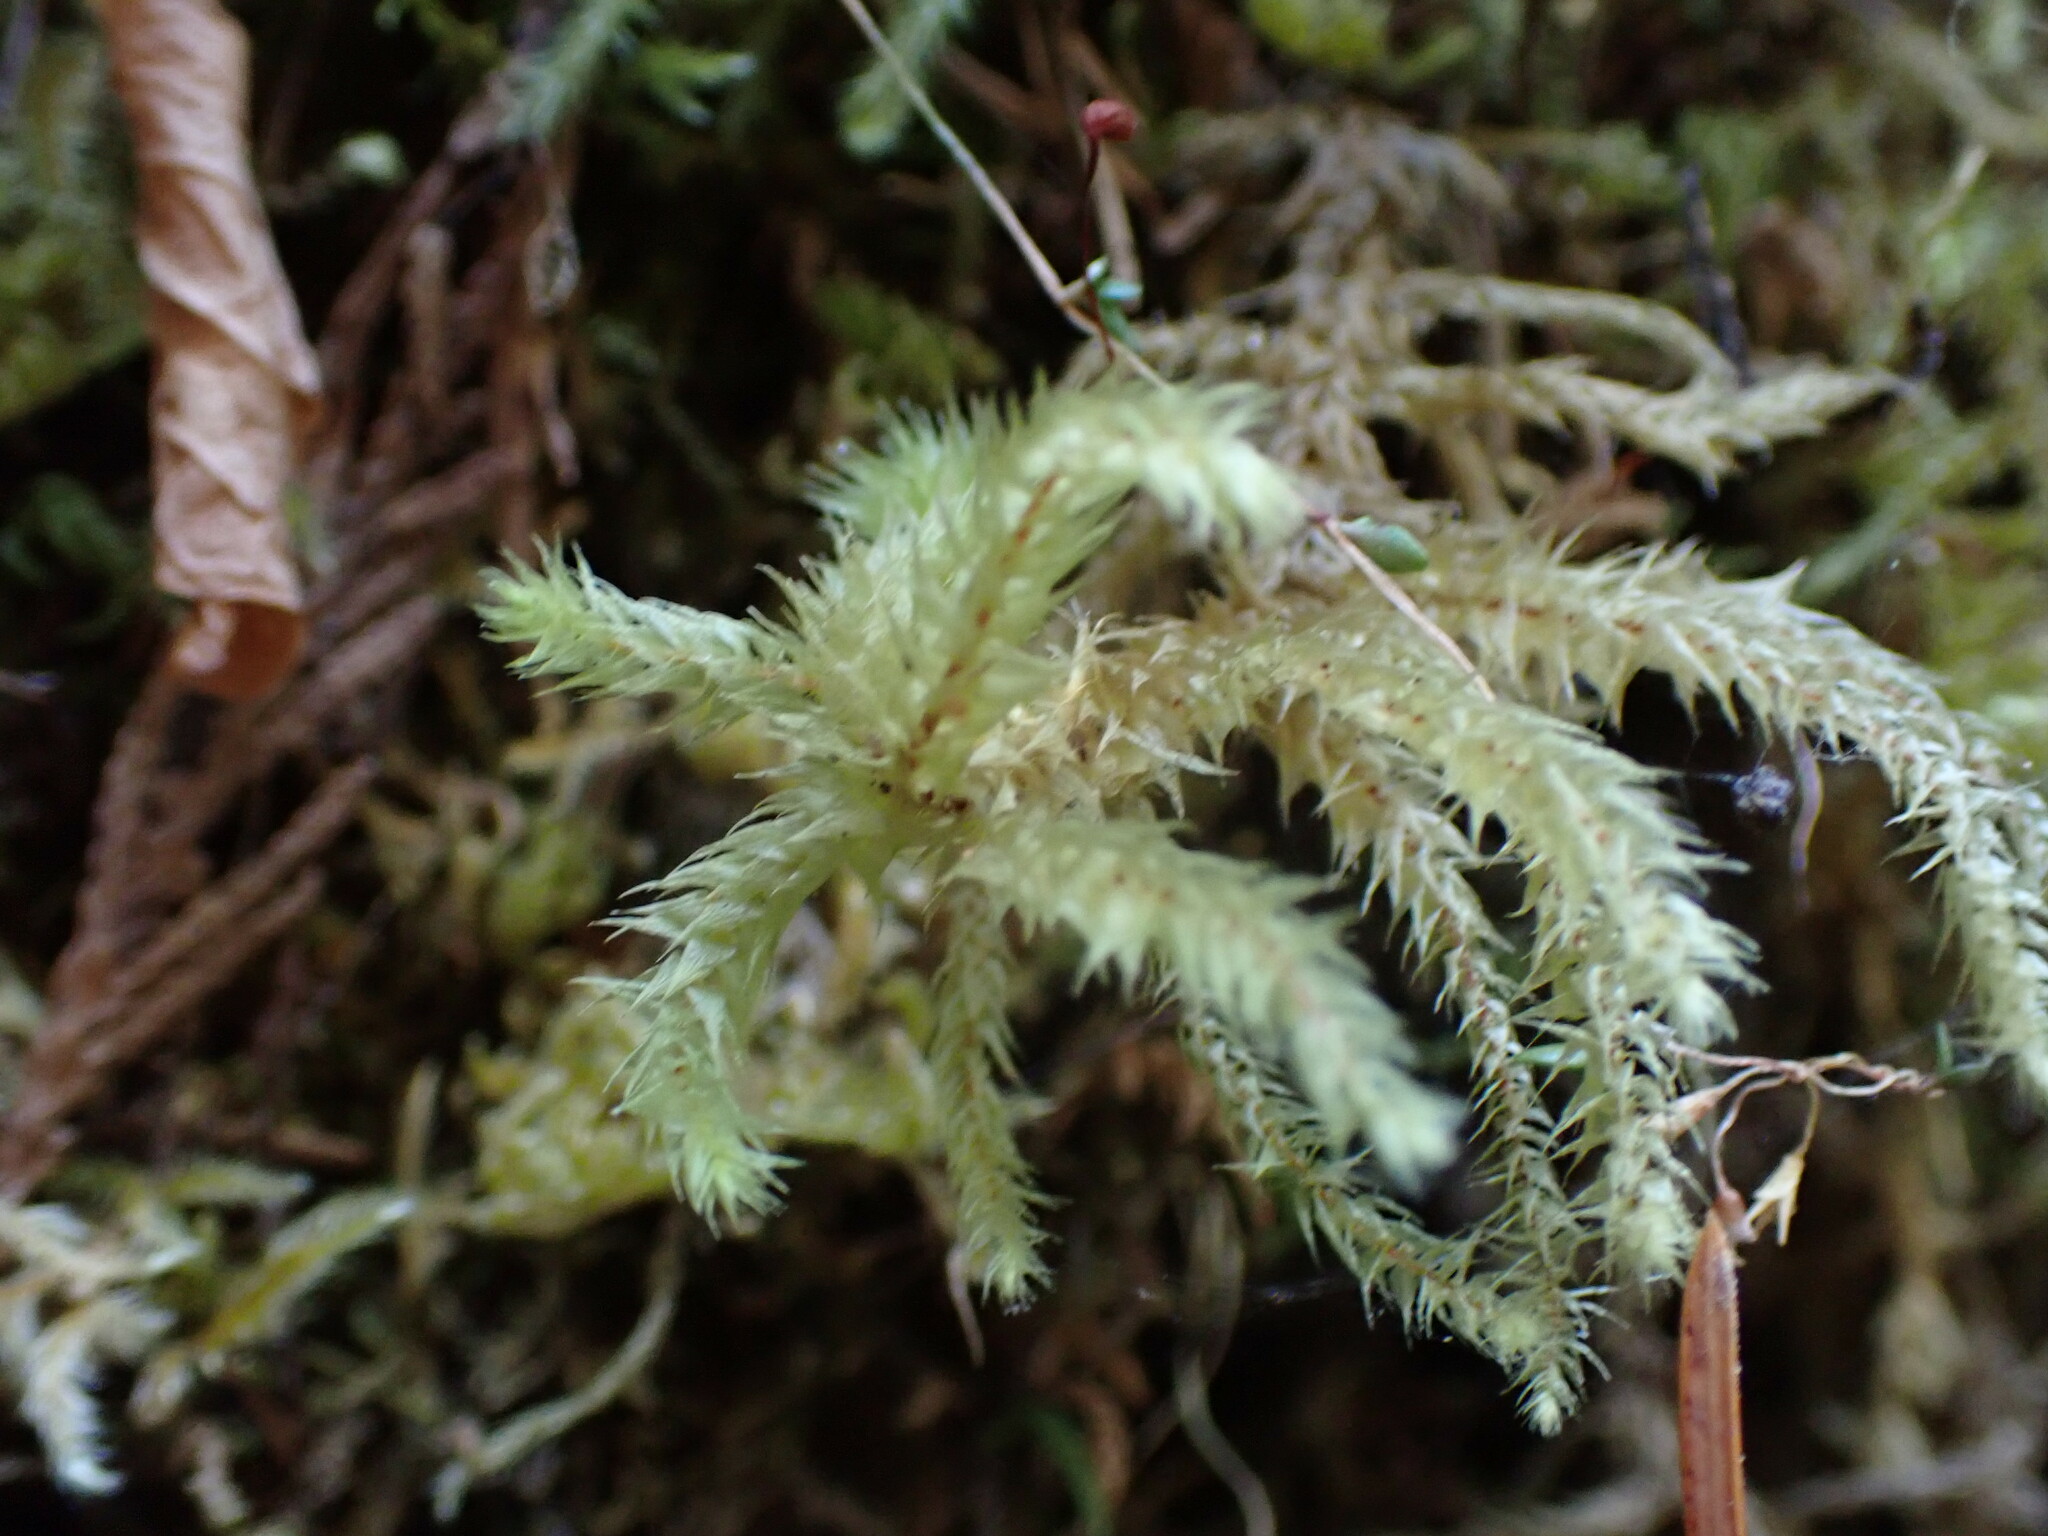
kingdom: Plantae
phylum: Bryophyta
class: Bryopsida
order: Hypnales
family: Hylocomiaceae
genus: Hylocomiadelphus
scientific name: Hylocomiadelphus triquetrus
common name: Rough goose neck moss
